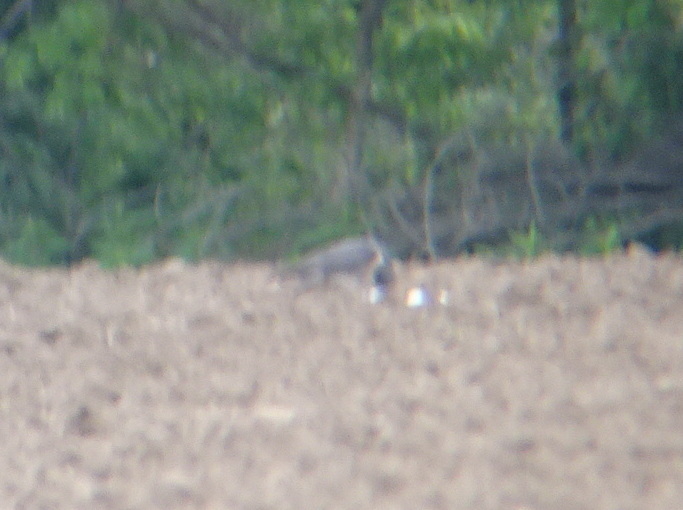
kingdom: Animalia
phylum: Chordata
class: Aves
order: Falconiformes
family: Falconidae
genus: Falco
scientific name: Falco peregrinus
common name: Peregrine falcon
